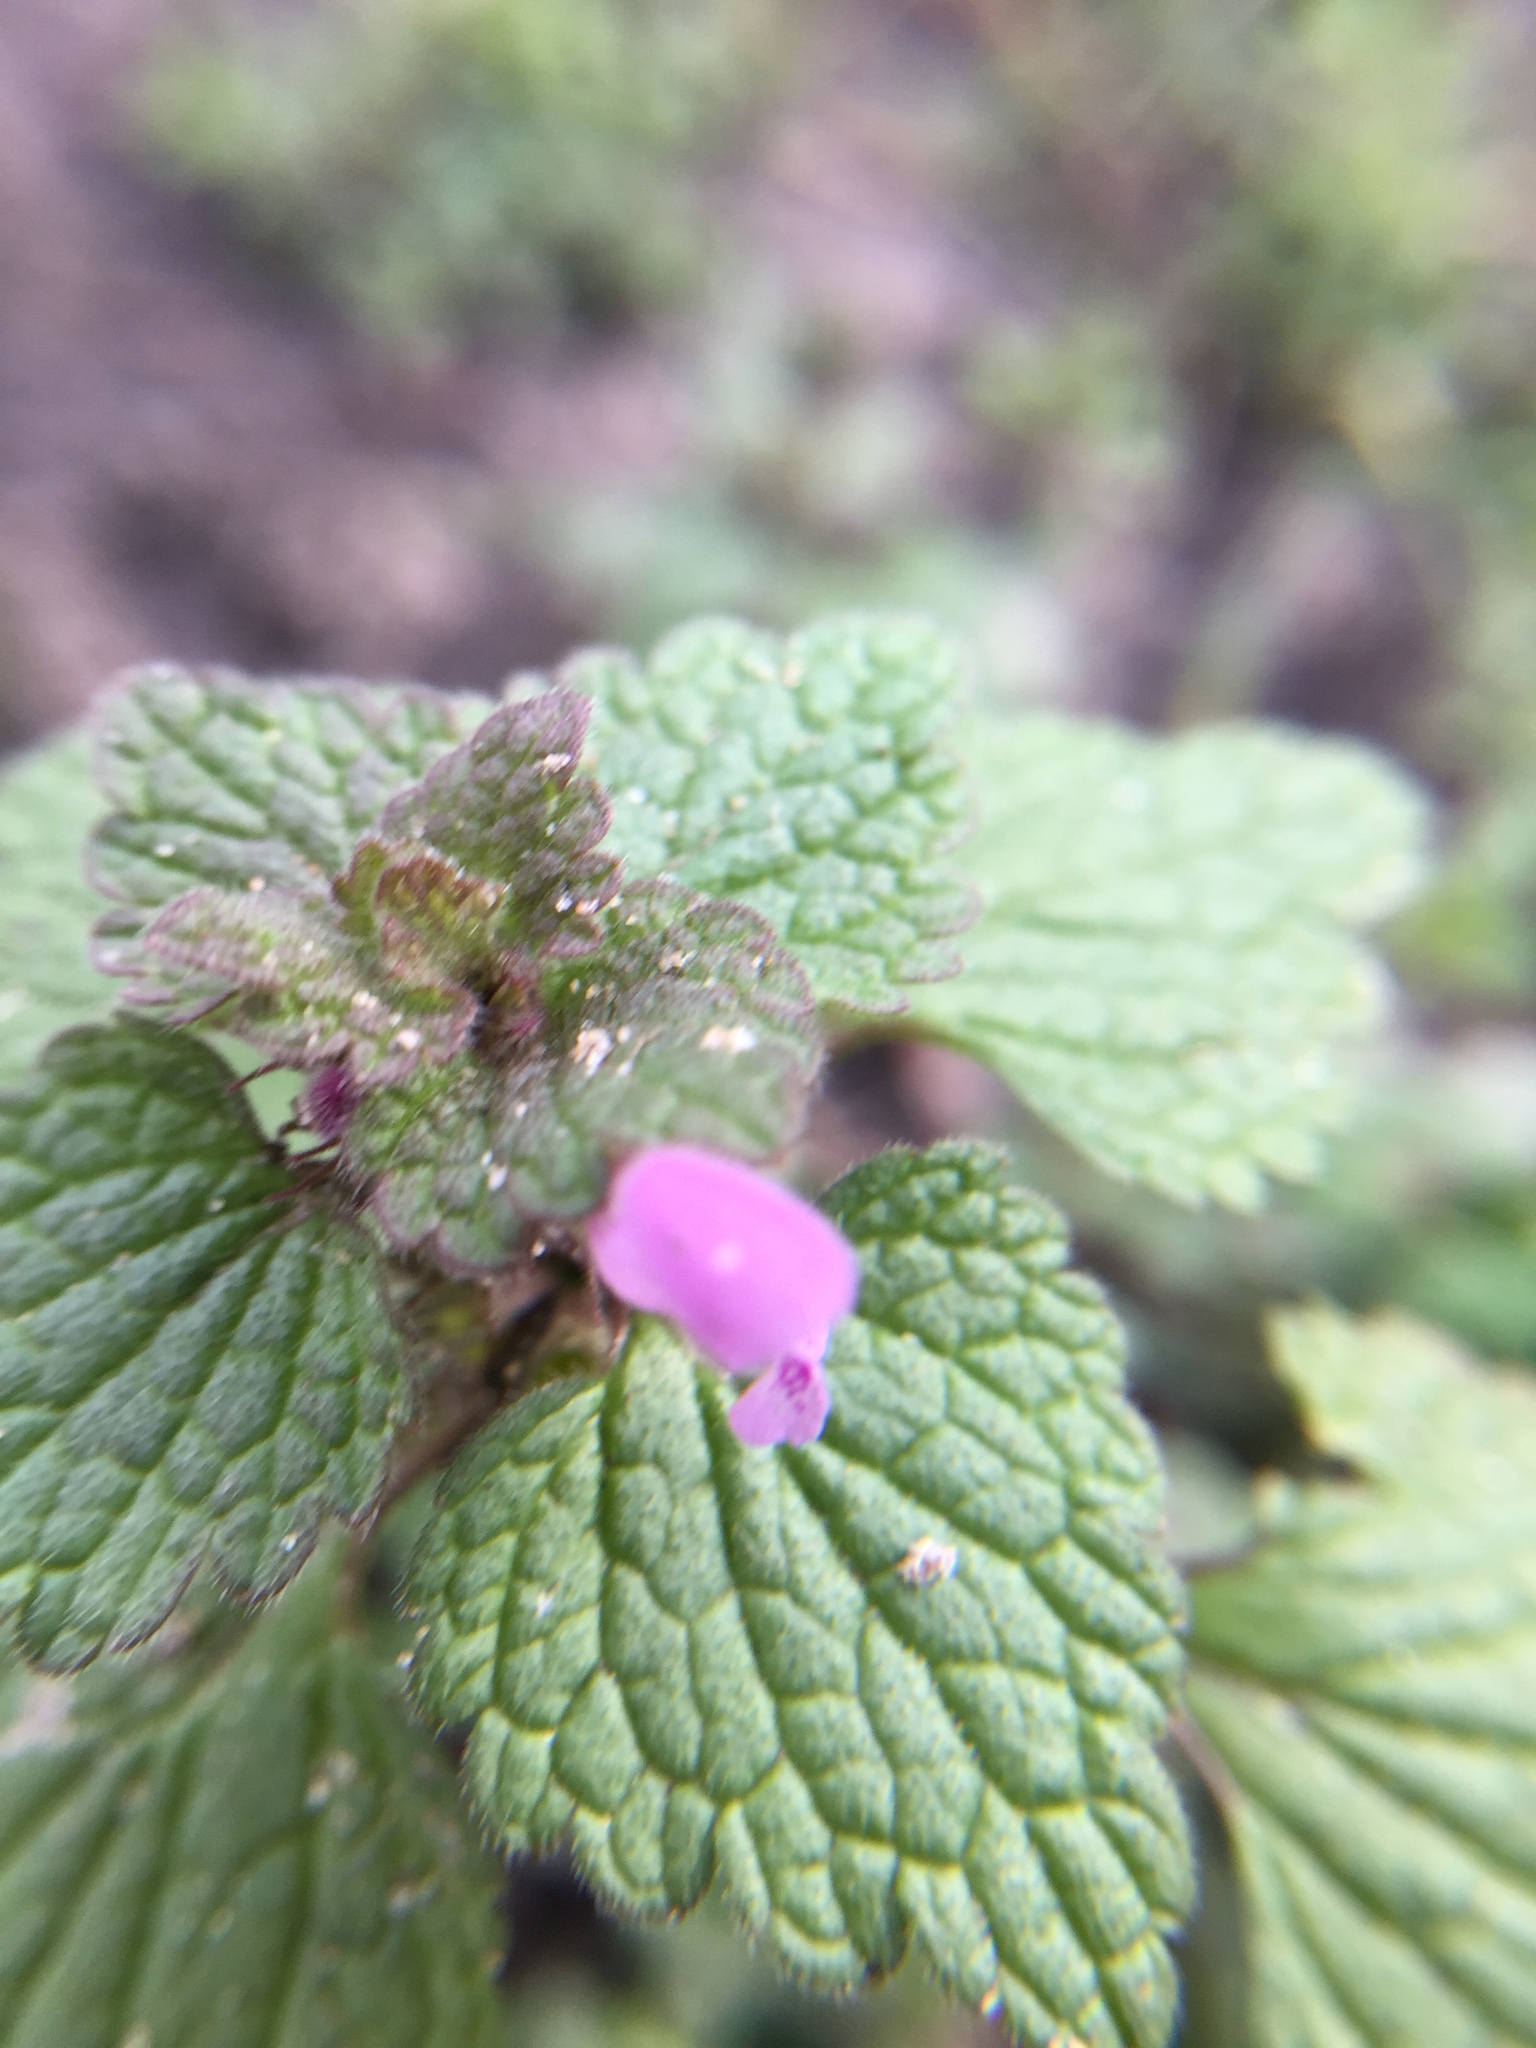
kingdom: Plantae
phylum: Tracheophyta
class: Magnoliopsida
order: Lamiales
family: Lamiaceae
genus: Lamium
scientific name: Lamium purpureum
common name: Red dead-nettle
